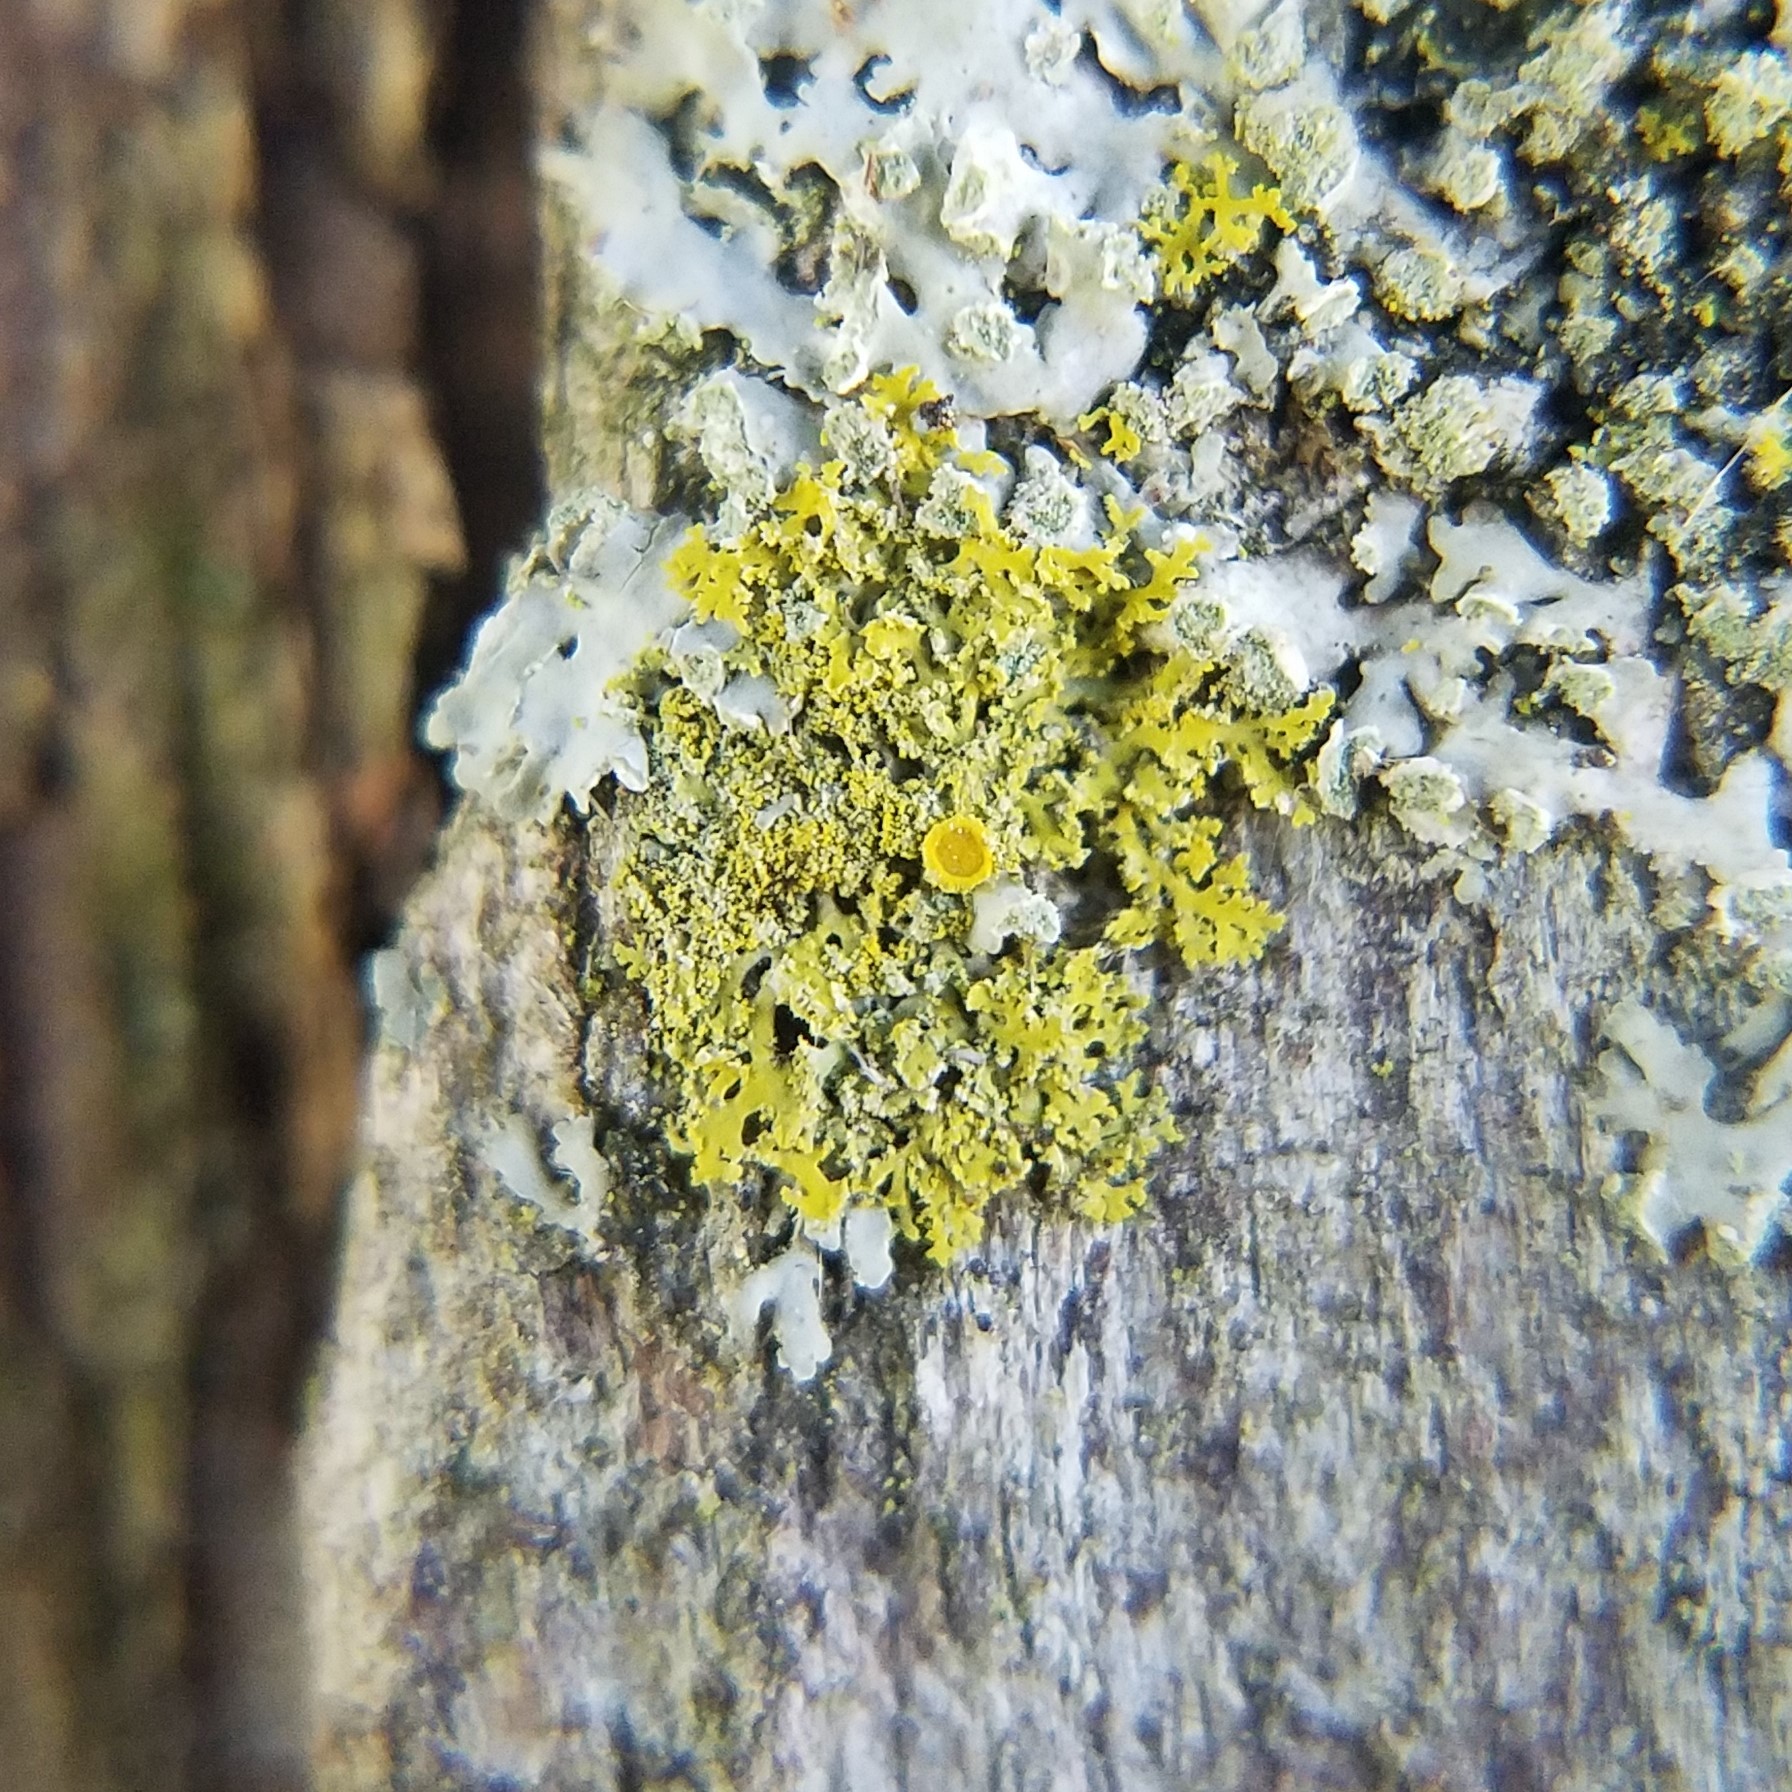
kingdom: Fungi
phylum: Ascomycota
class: Candelariomycetes
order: Candelariales
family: Candelariaceae
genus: Candelaria
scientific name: Candelaria concolor
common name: Candleflame lichen
